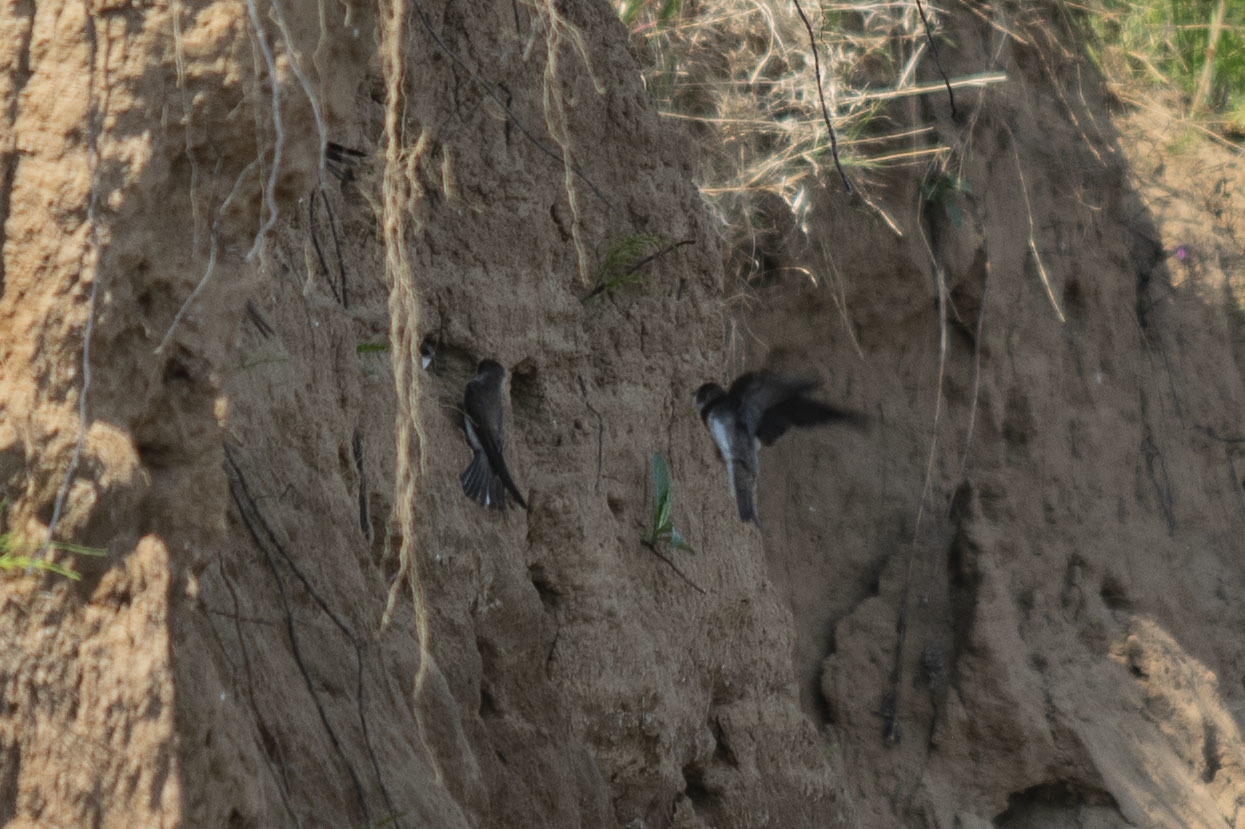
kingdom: Animalia
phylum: Chordata
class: Aves
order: Passeriformes
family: Hirundinidae
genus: Riparia
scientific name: Riparia riparia
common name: Sand martin
